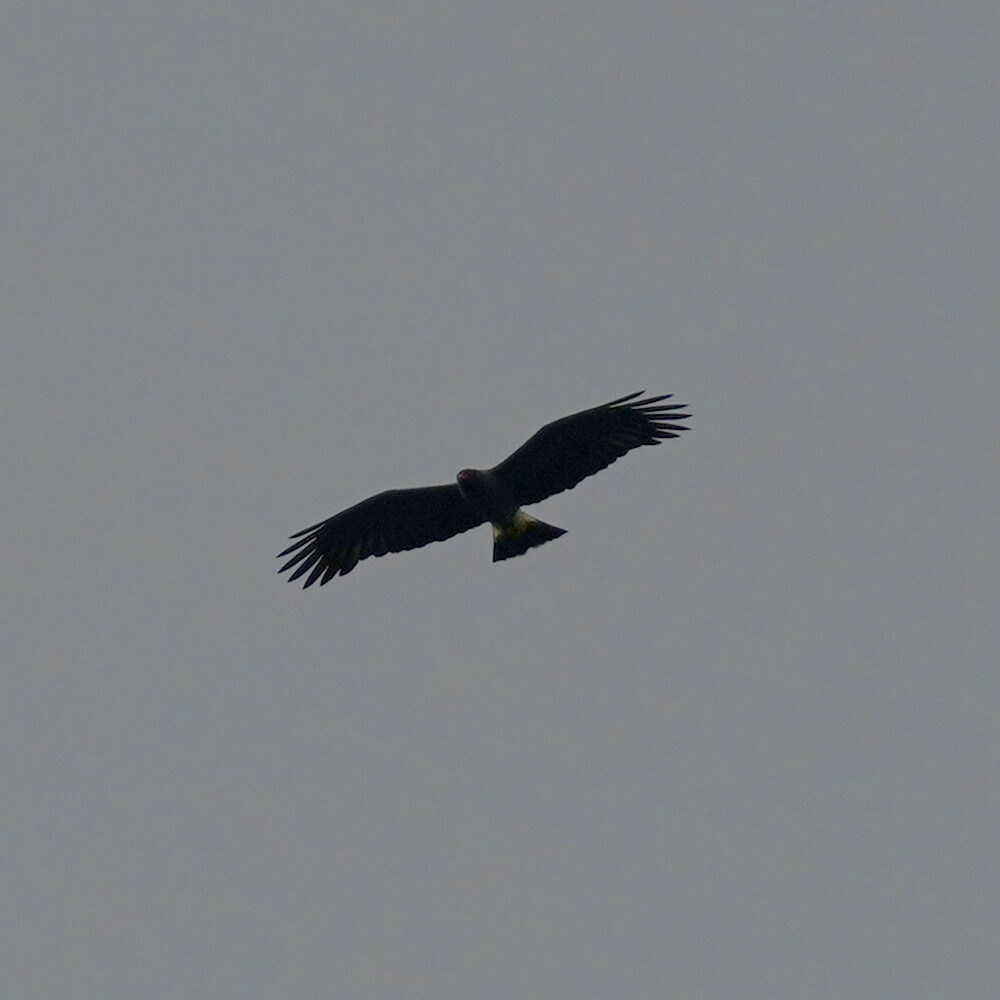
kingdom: Animalia
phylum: Chordata
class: Aves
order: Accipitriformes
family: Accipitridae
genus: Rostrhamus
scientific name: Rostrhamus sociabilis
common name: Snail kite
